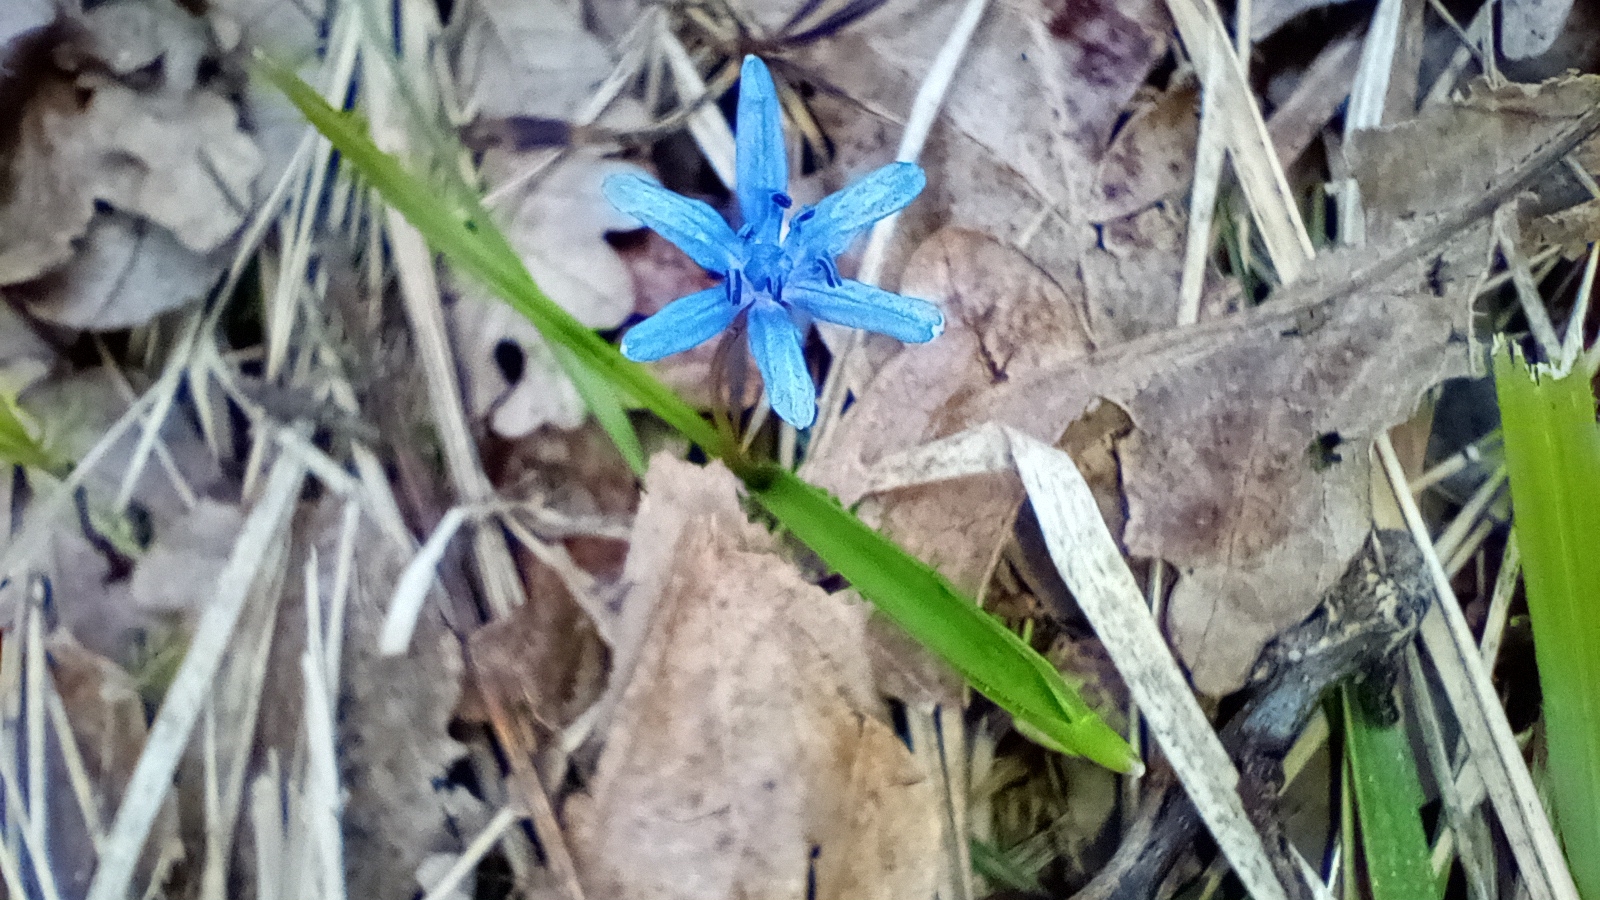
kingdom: Plantae
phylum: Tracheophyta
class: Liliopsida
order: Asparagales
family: Asparagaceae
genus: Scilla
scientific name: Scilla bifolia
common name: Alpine squill
